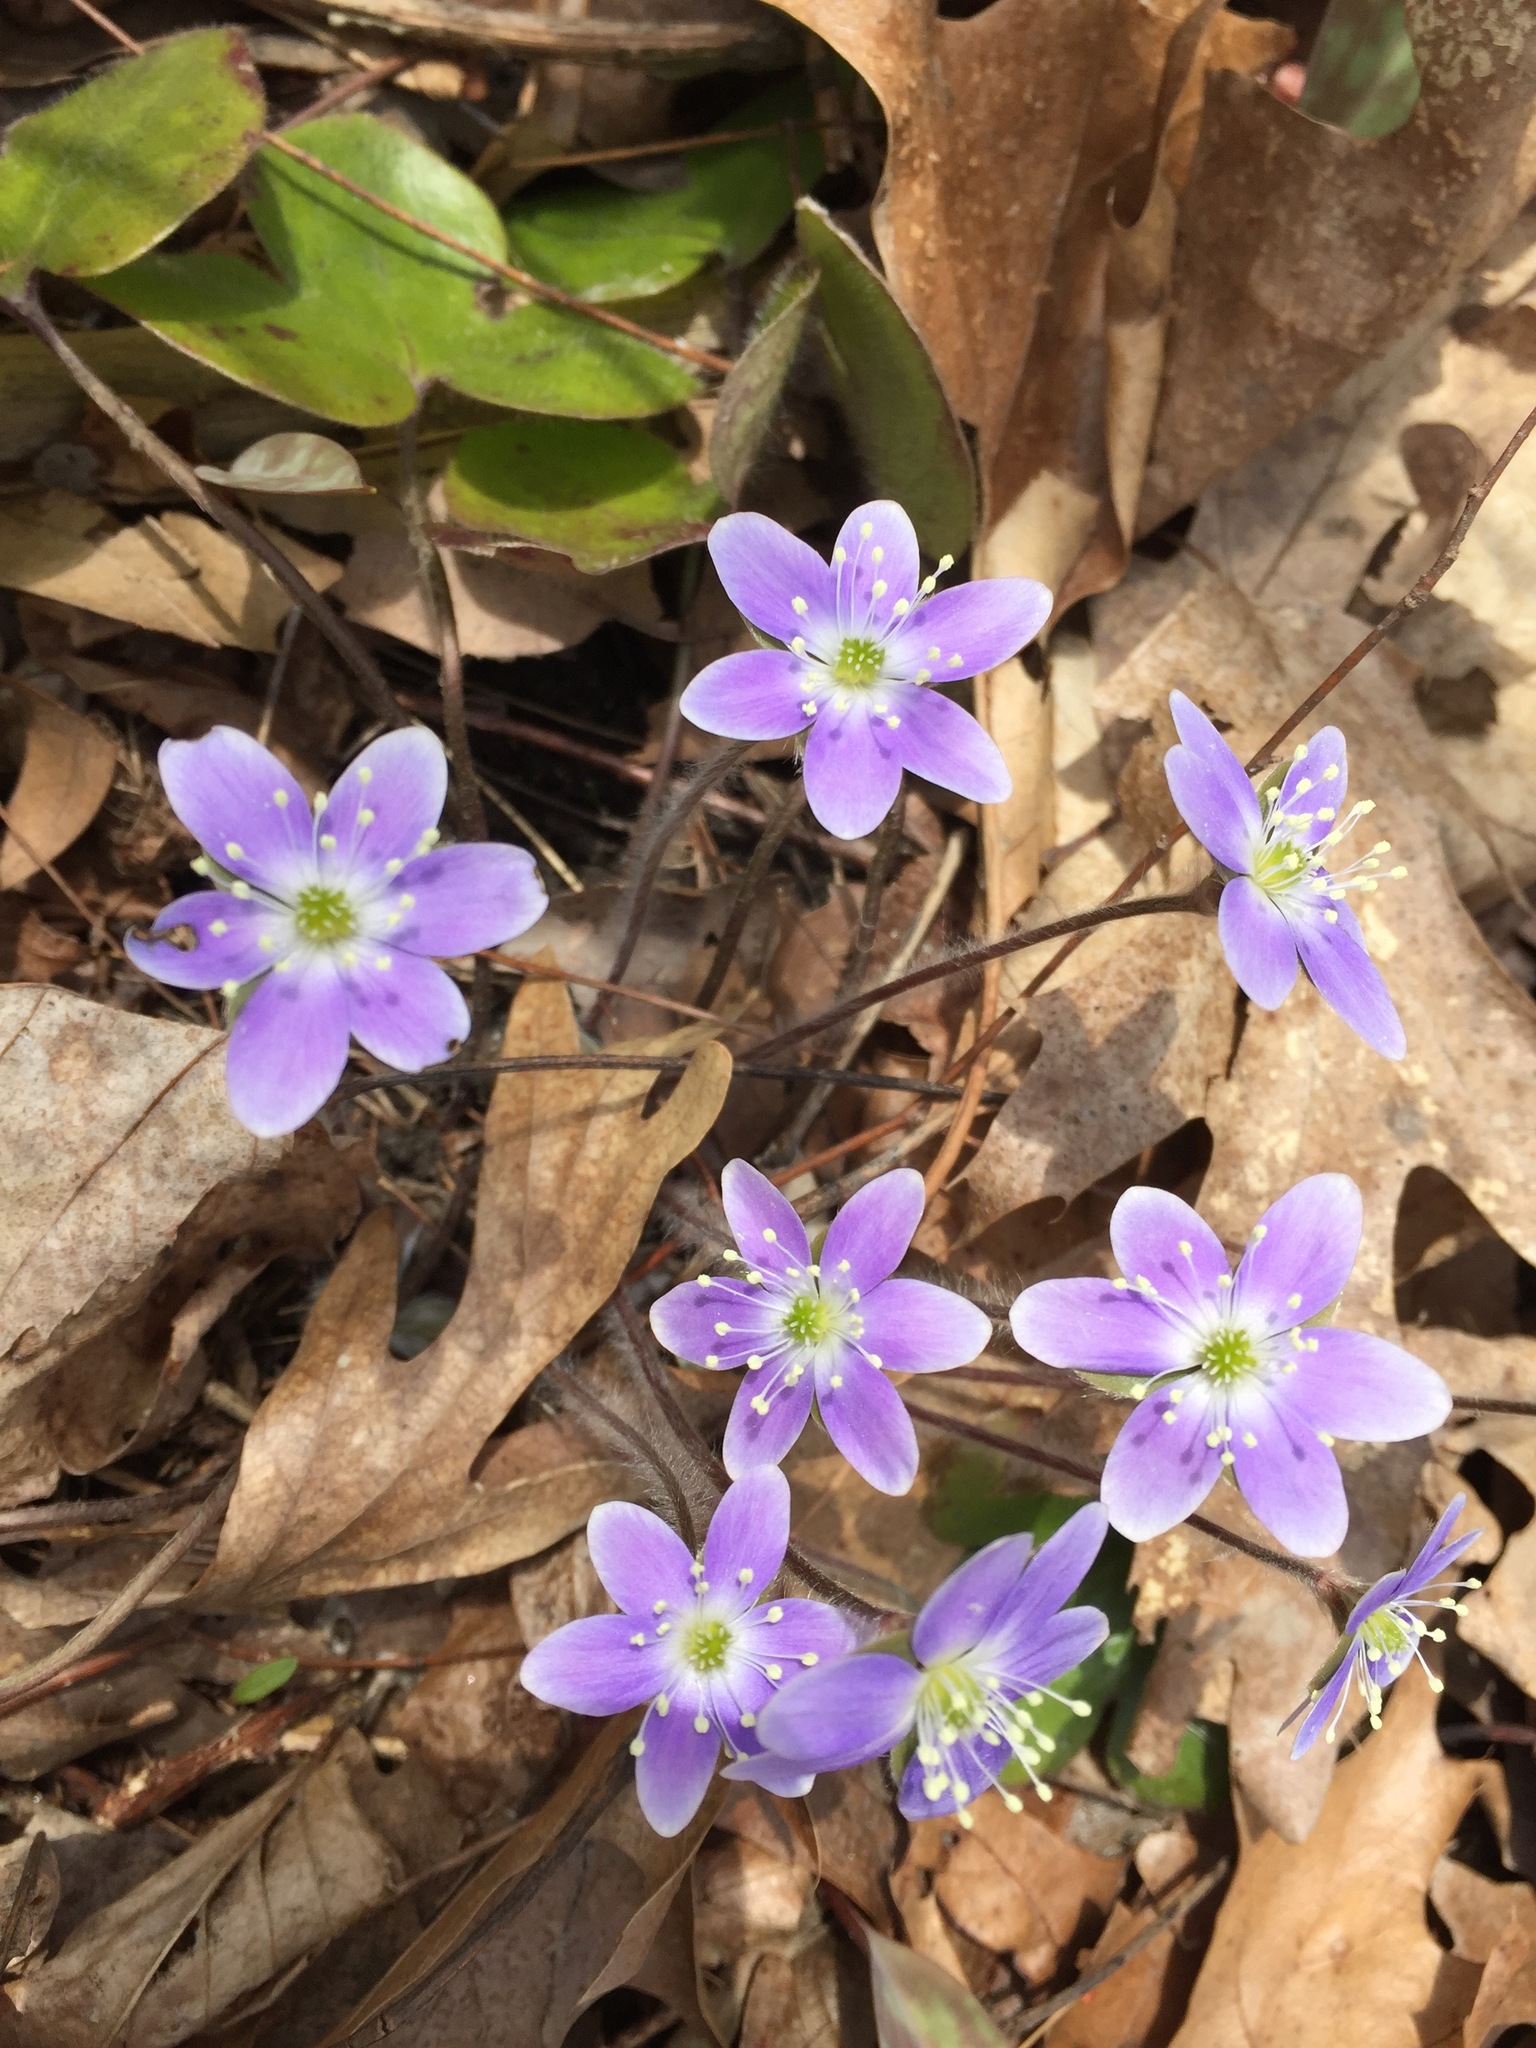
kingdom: Plantae
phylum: Tracheophyta
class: Magnoliopsida
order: Ranunculales
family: Ranunculaceae
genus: Hepatica
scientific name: Hepatica americana
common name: American hepatica
